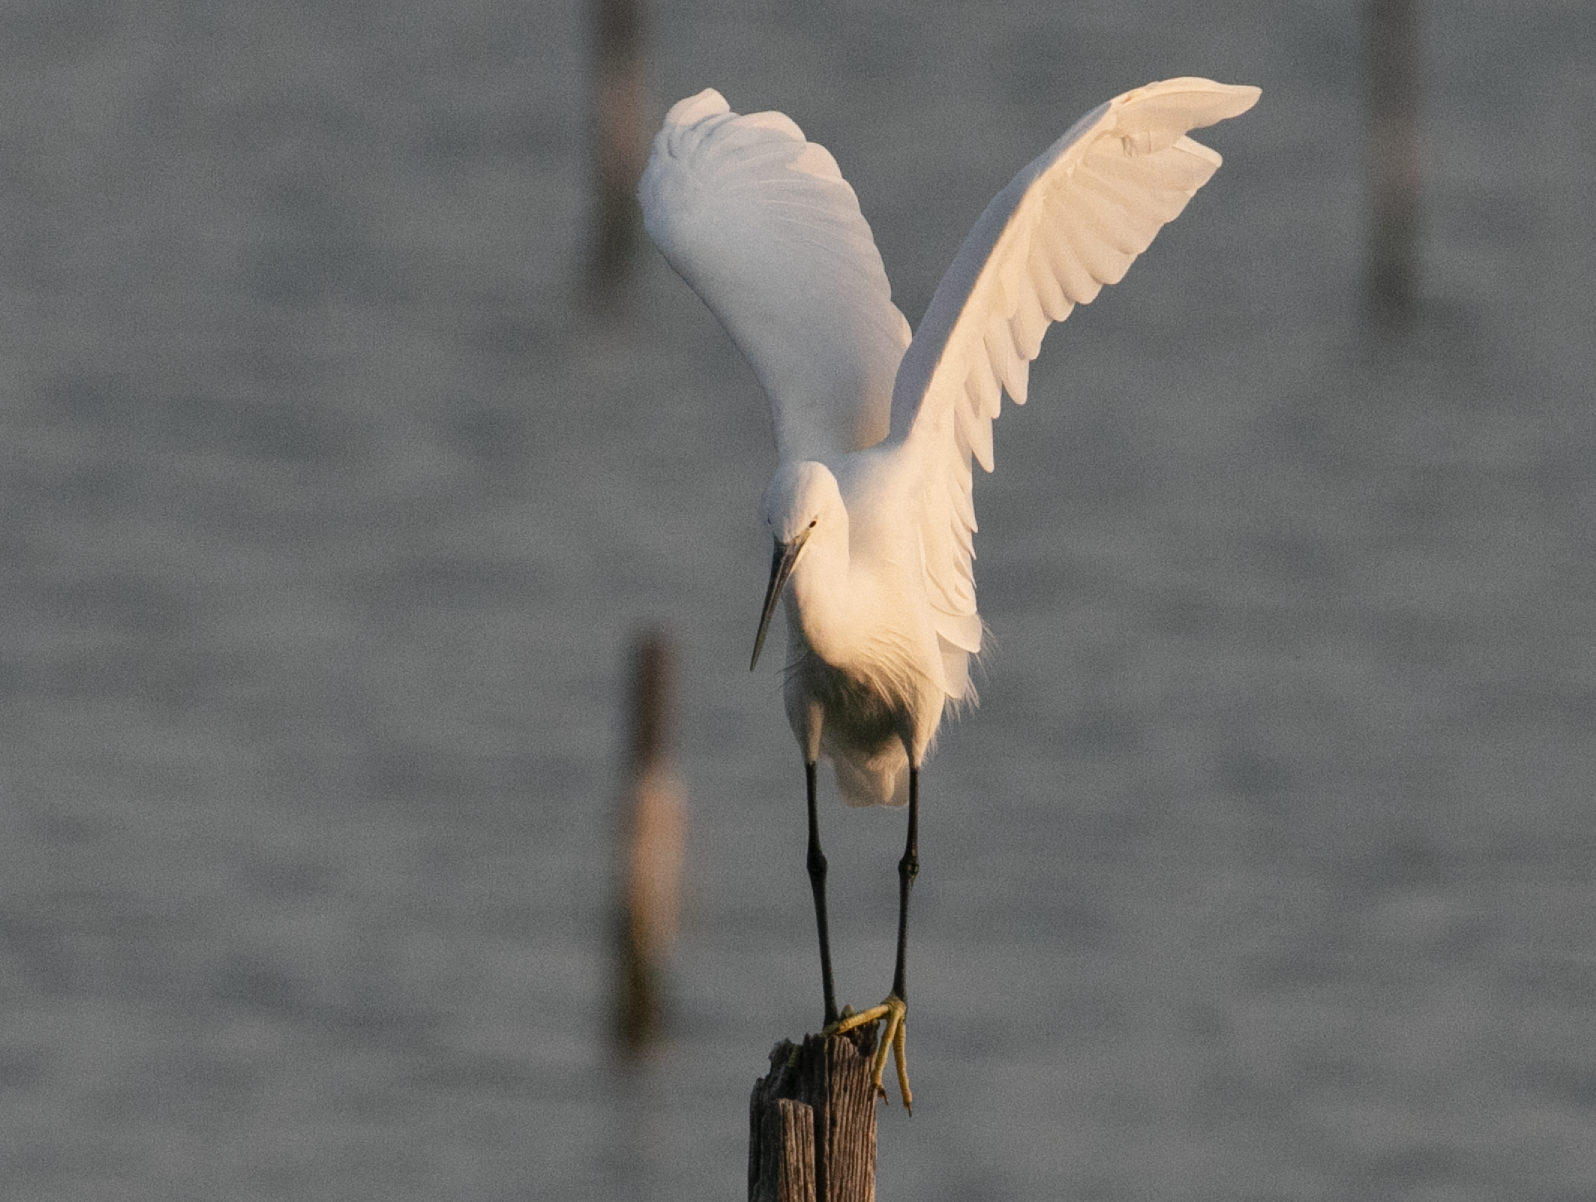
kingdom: Animalia
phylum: Chordata
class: Aves
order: Pelecaniformes
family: Ardeidae
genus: Egretta
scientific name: Egretta garzetta
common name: Little egret
